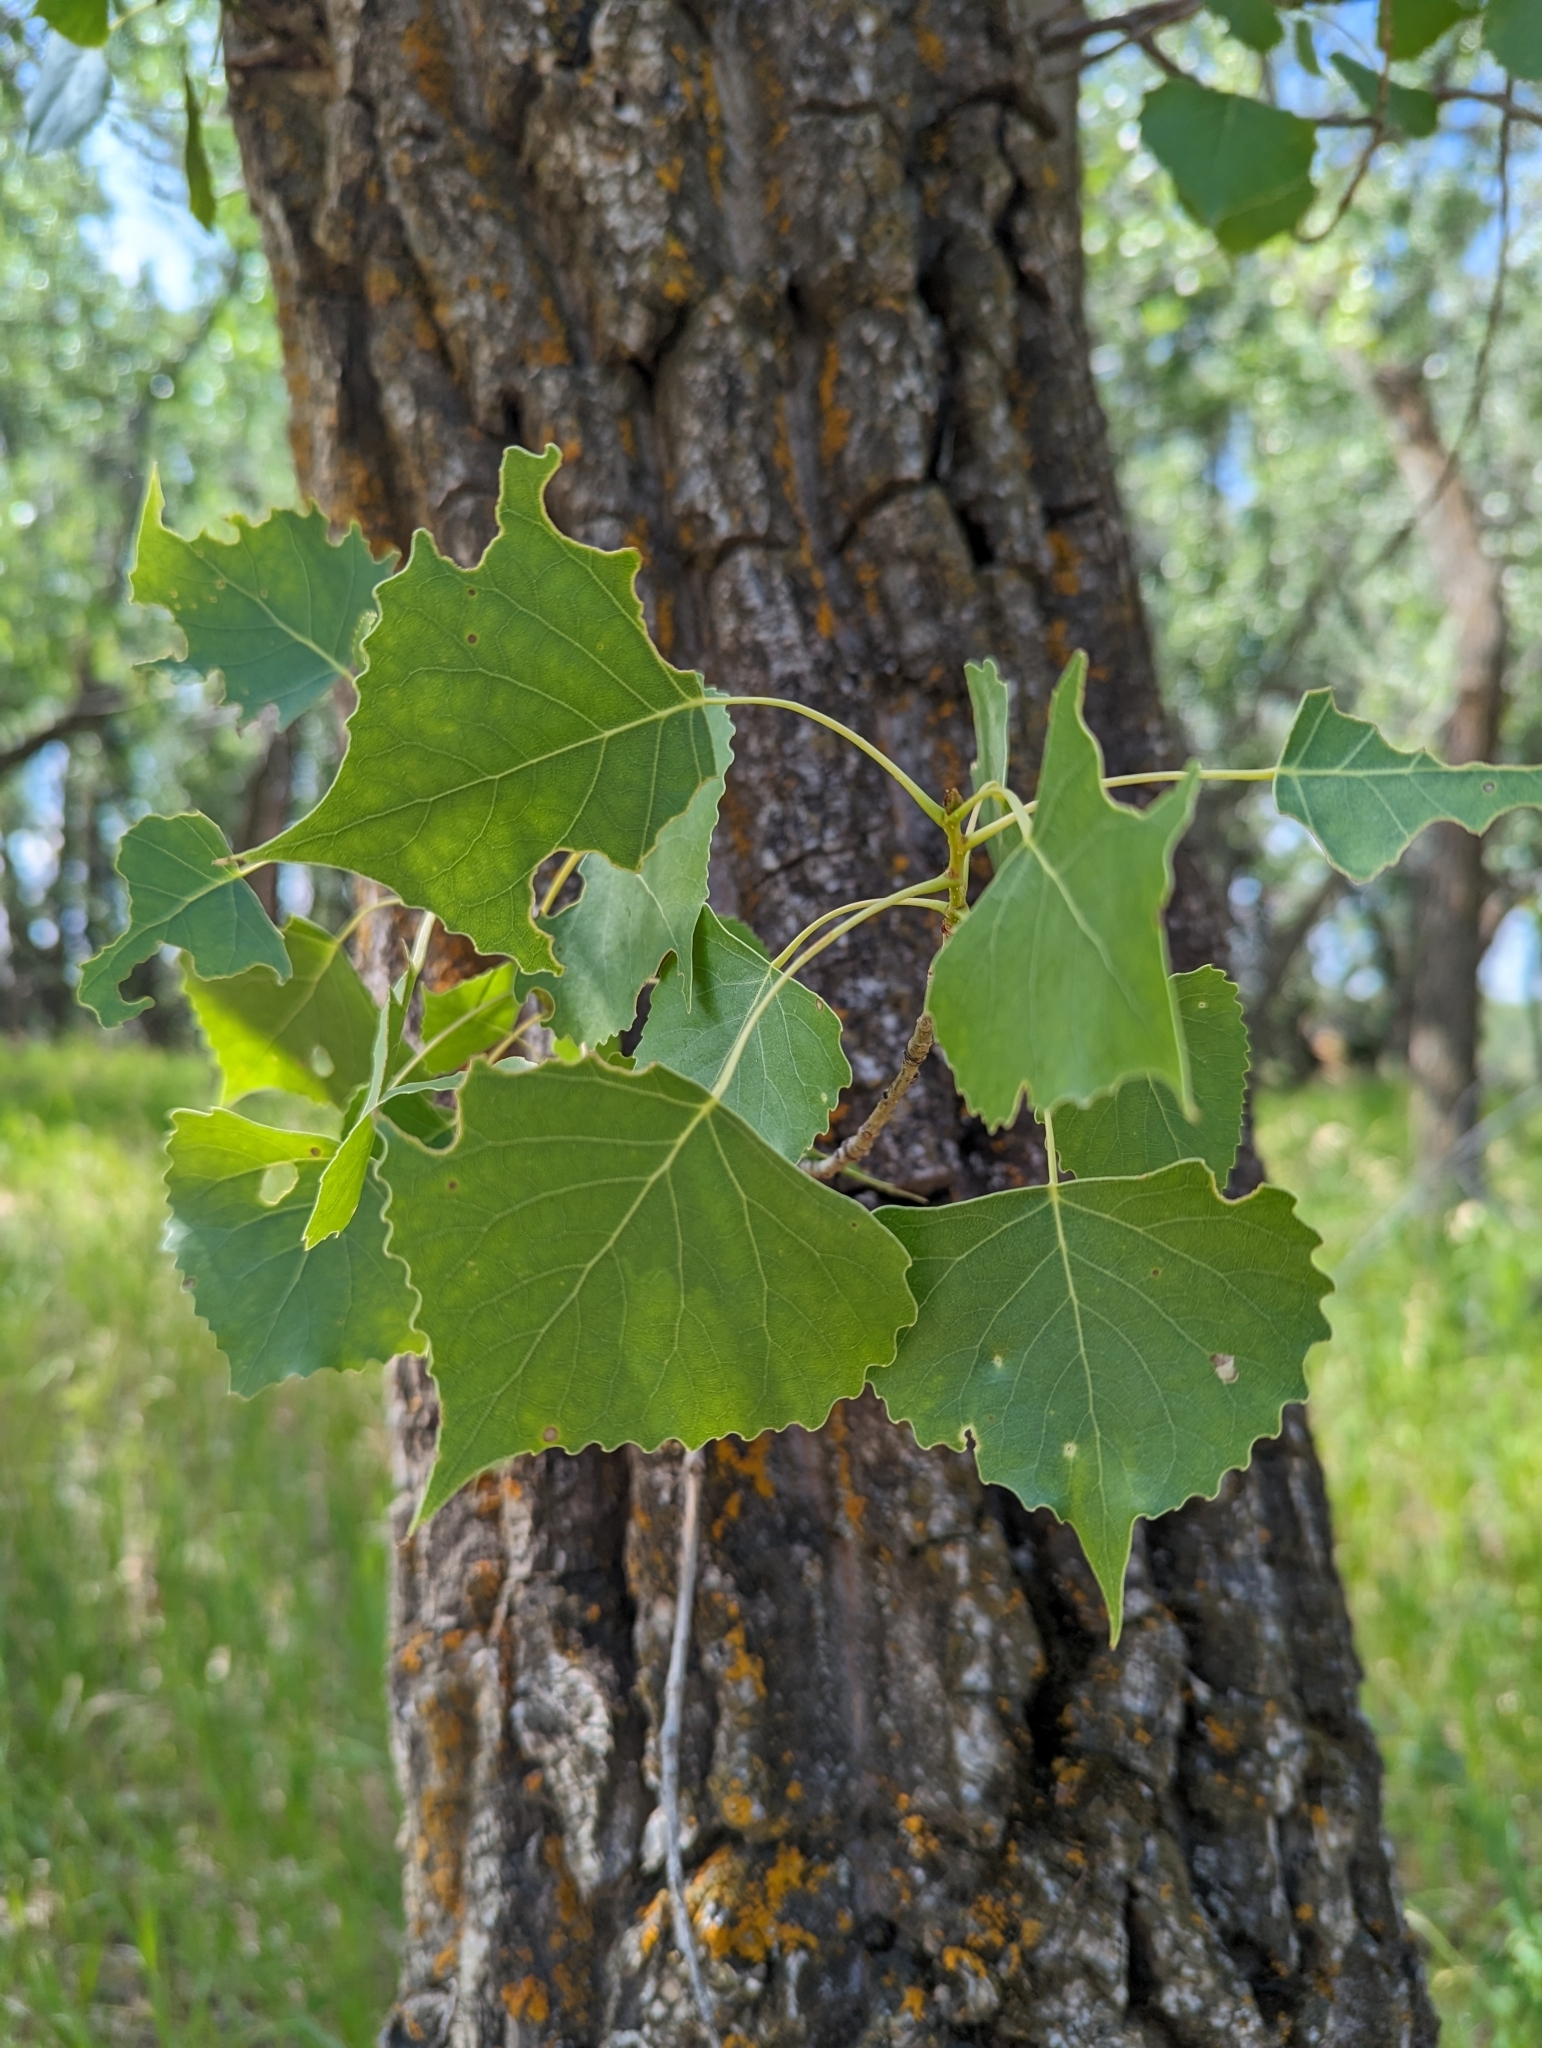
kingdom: Plantae
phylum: Tracheophyta
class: Magnoliopsida
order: Malpighiales
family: Salicaceae
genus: Populus
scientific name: Populus deltoides
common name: Eastern cottonwood
